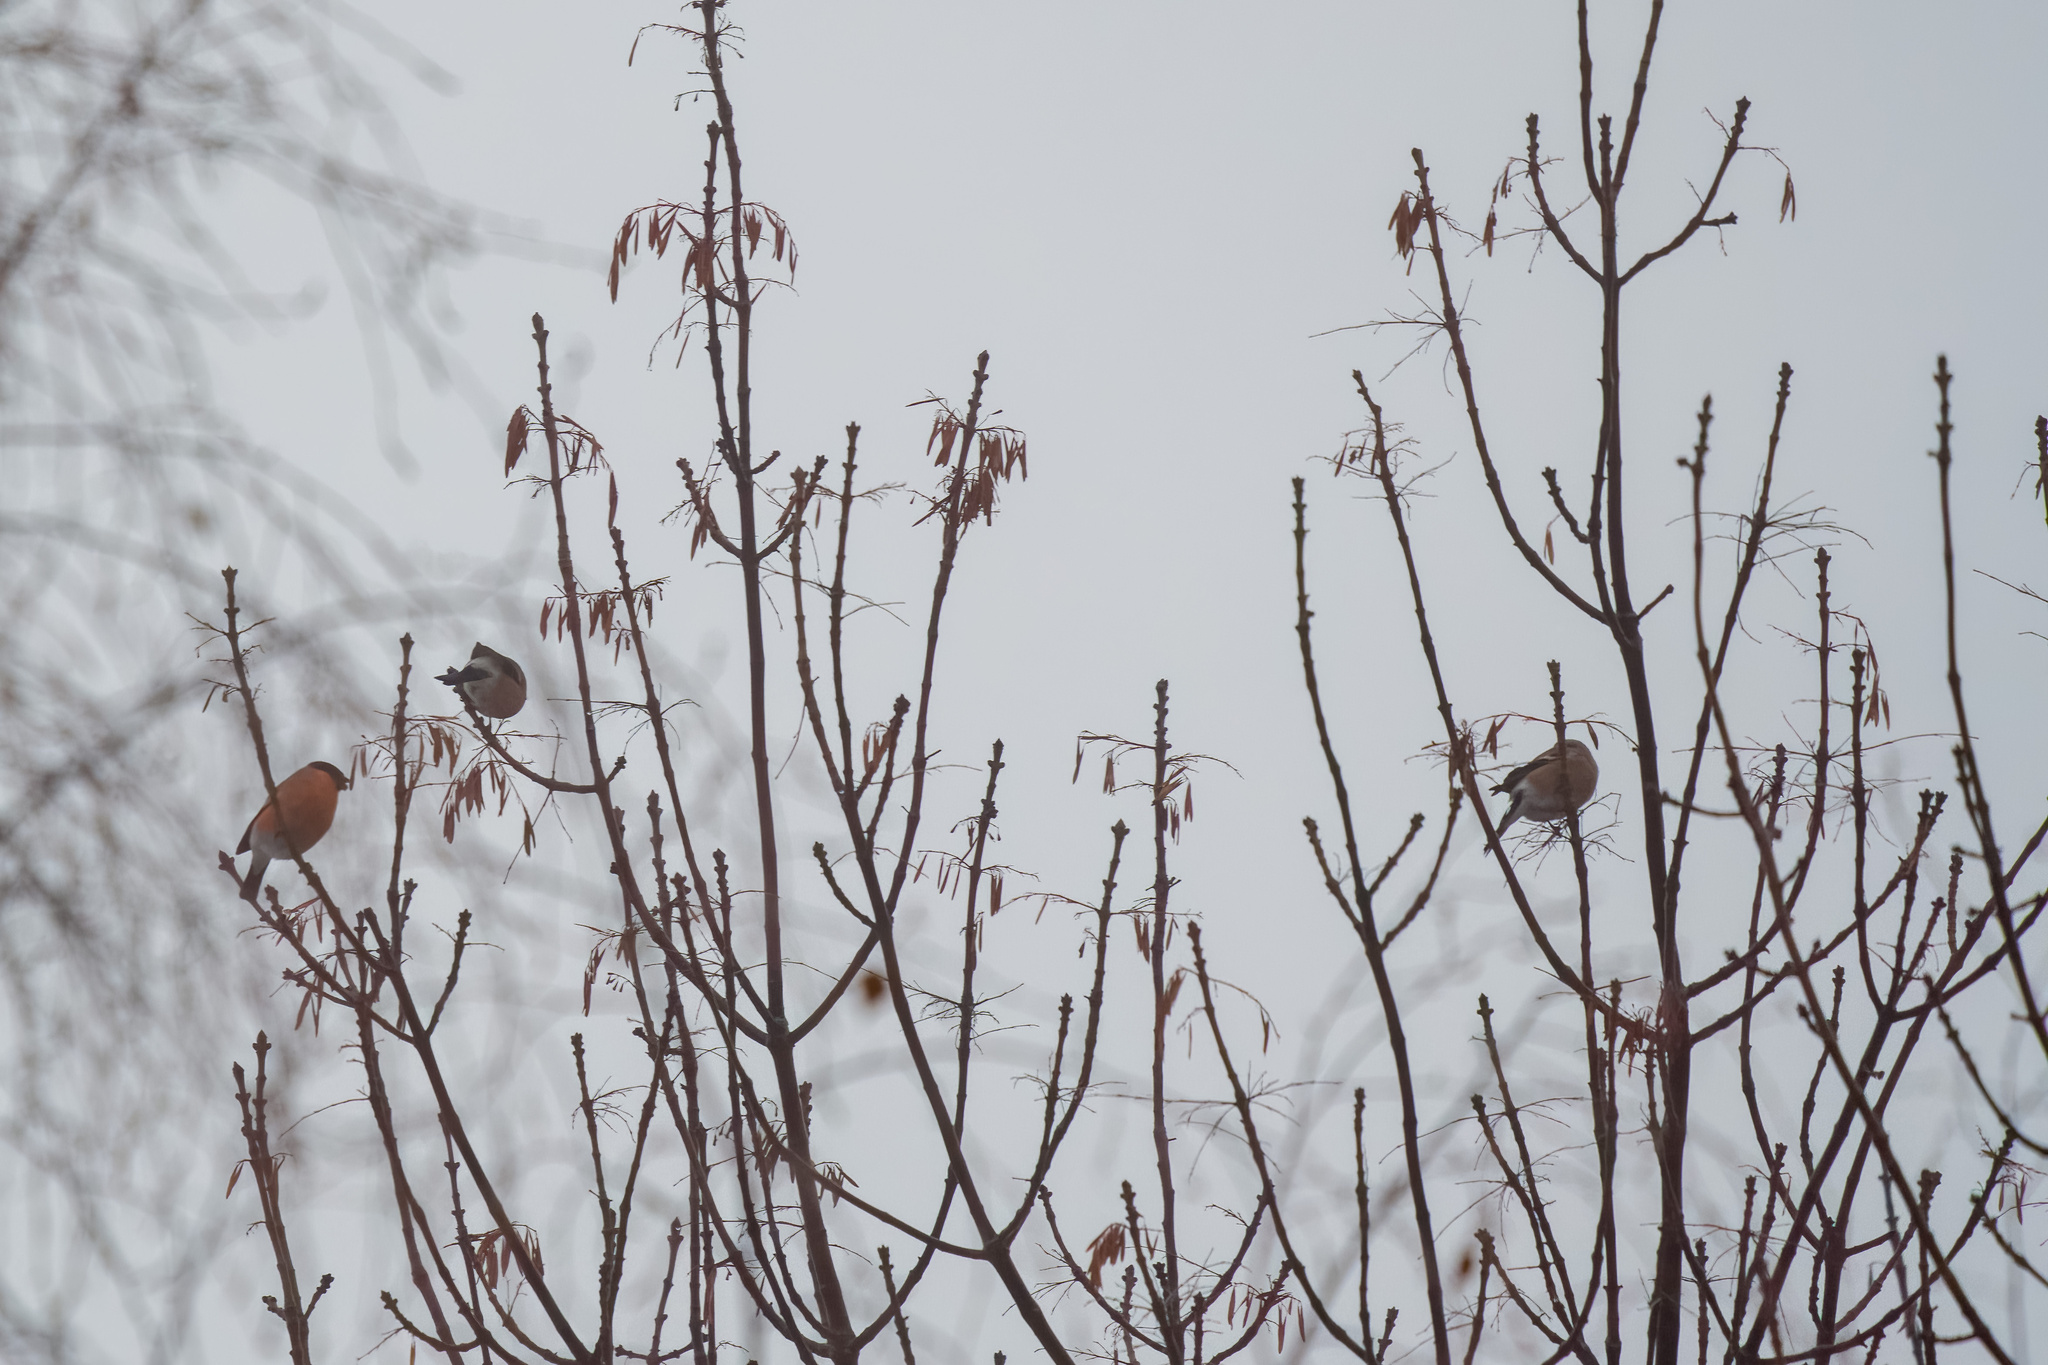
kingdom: Animalia
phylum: Chordata
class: Aves
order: Passeriformes
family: Fringillidae
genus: Pyrrhula
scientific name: Pyrrhula pyrrhula
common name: Eurasian bullfinch
